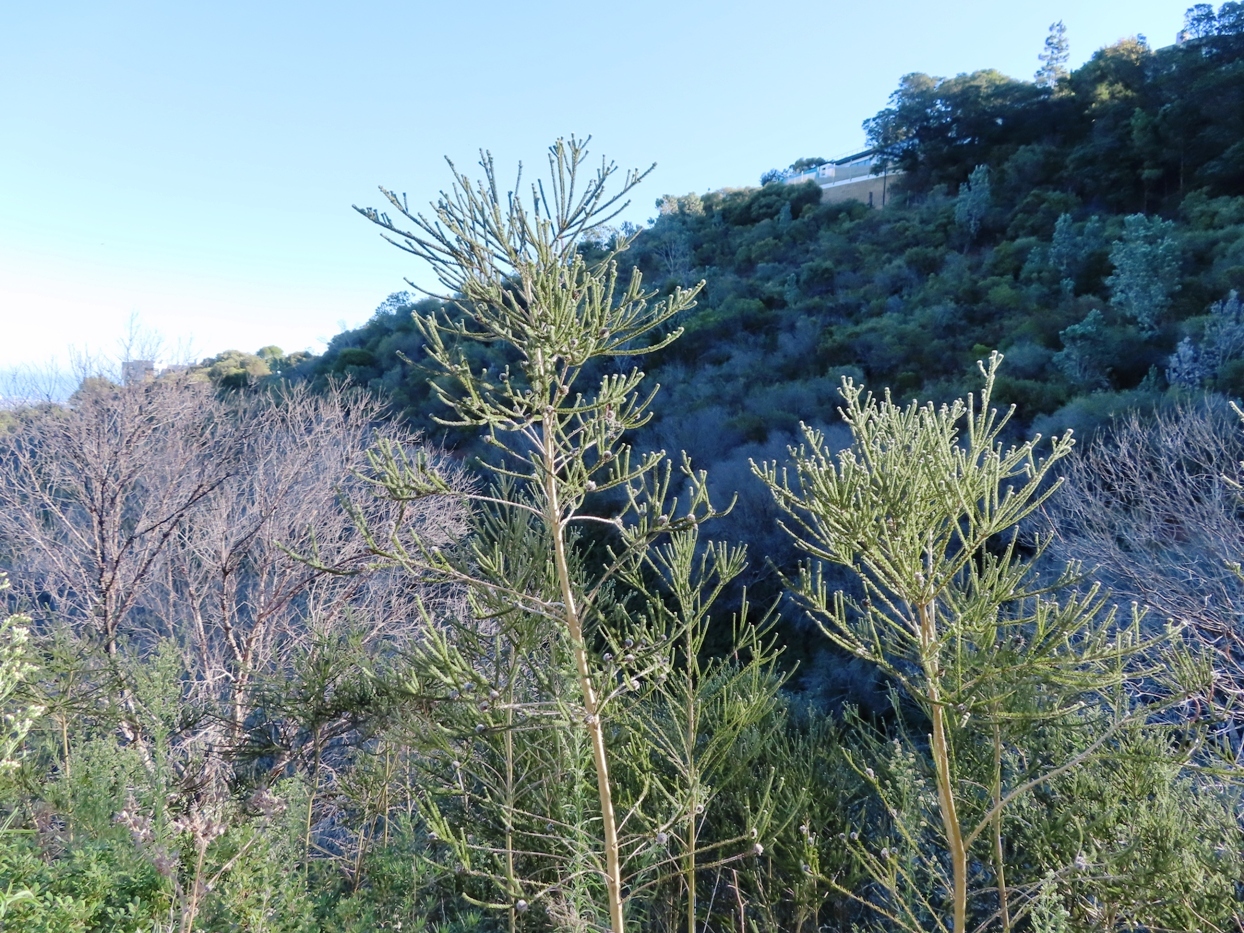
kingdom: Plantae
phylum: Tracheophyta
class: Magnoliopsida
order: Fabales
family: Fabaceae
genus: Aspalathus
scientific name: Aspalathus globosa
